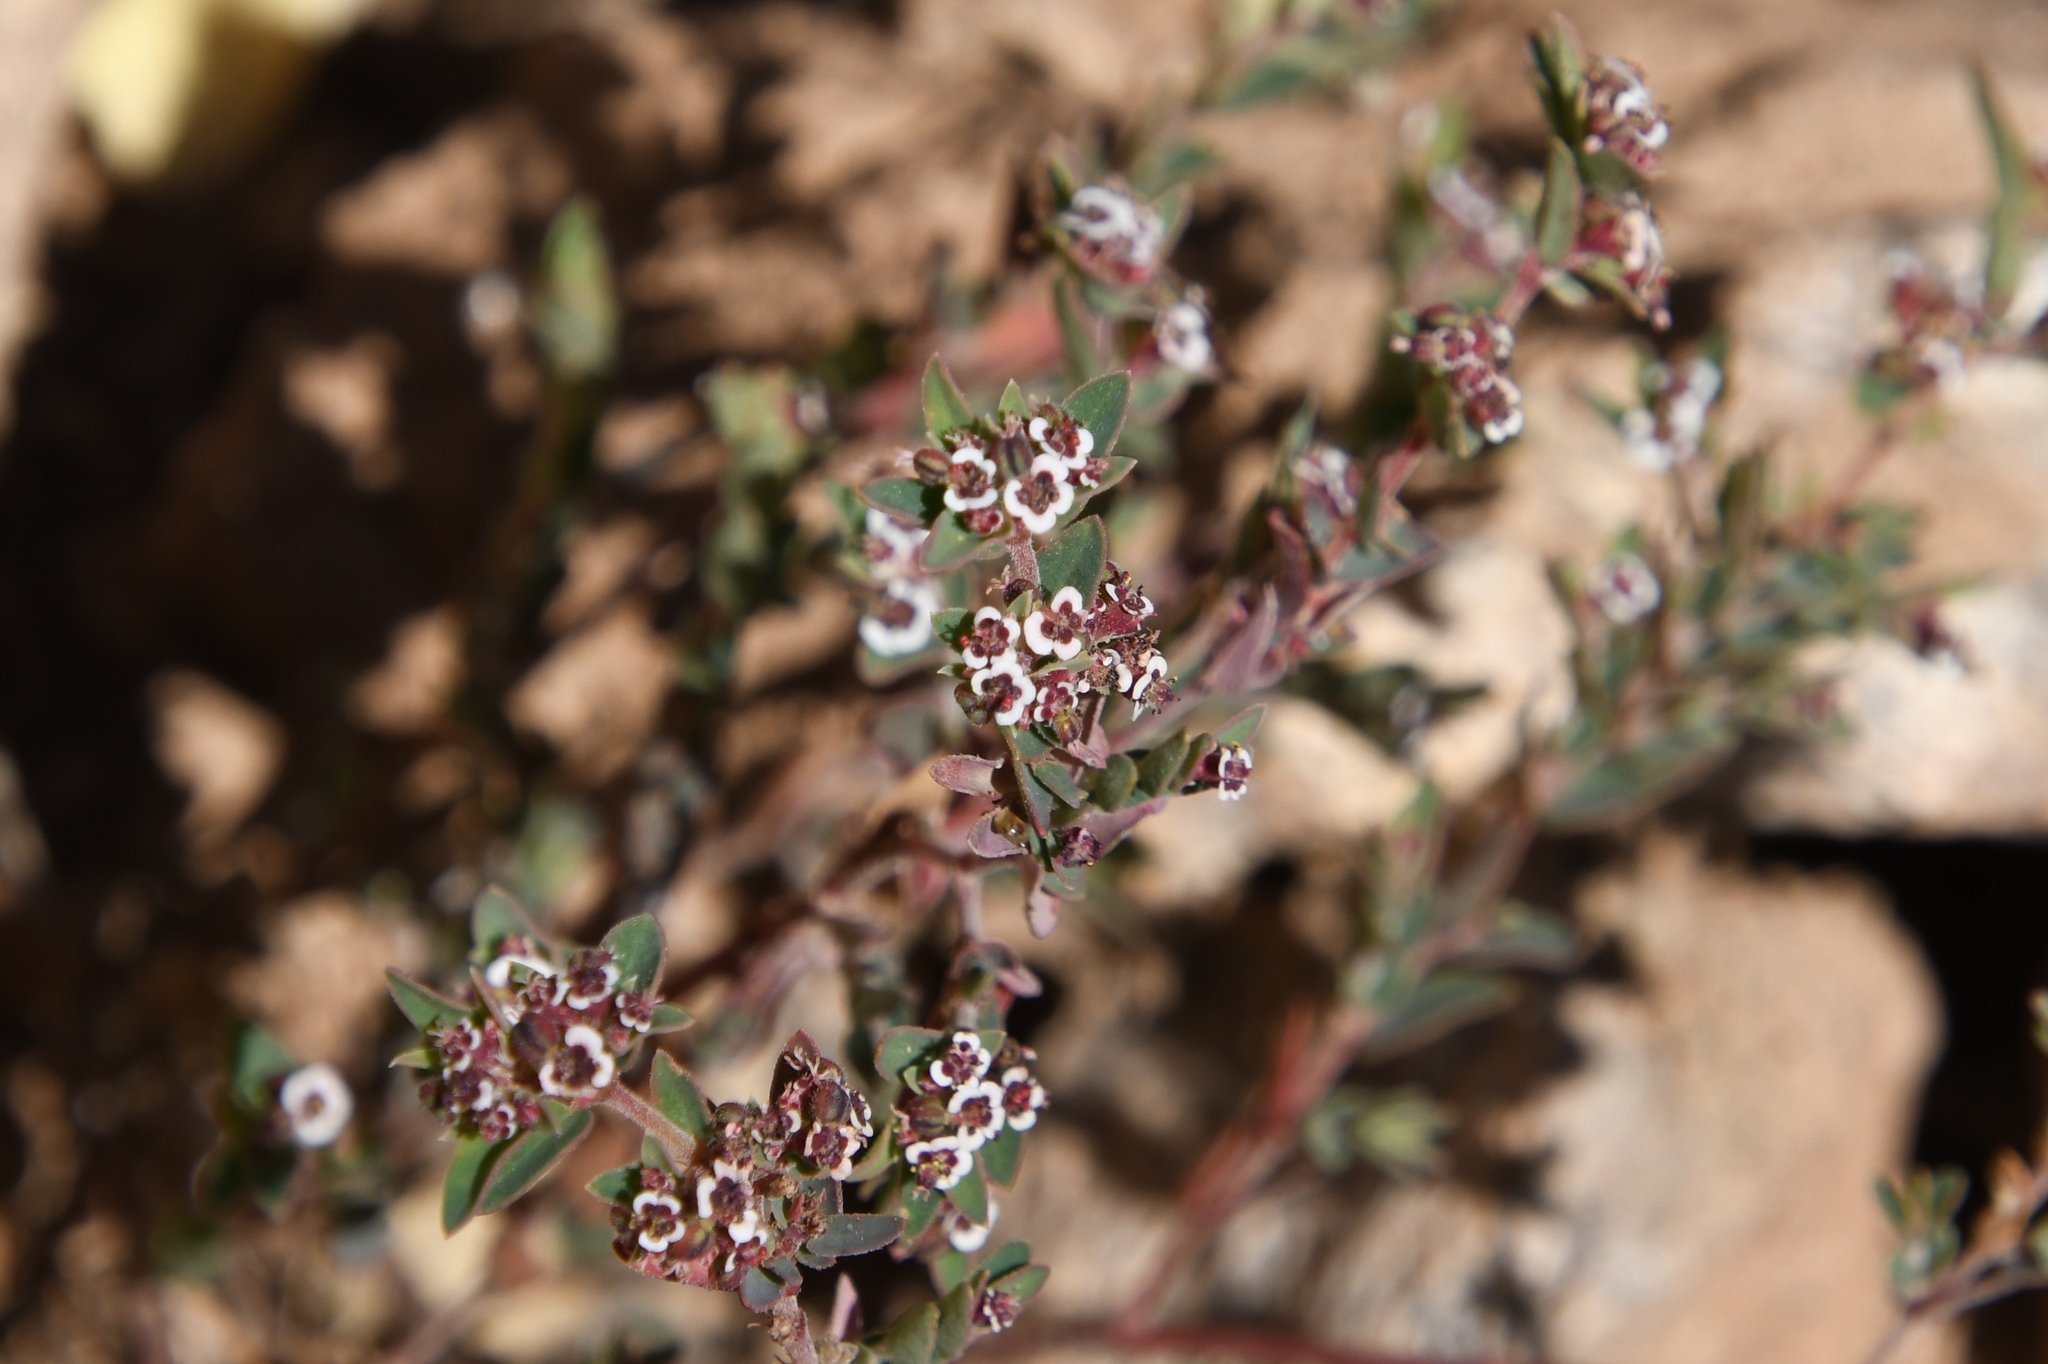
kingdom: Plantae
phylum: Tracheophyta
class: Magnoliopsida
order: Malpighiales
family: Euphorbiaceae
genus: Euphorbia
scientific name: Euphorbia capitellata
